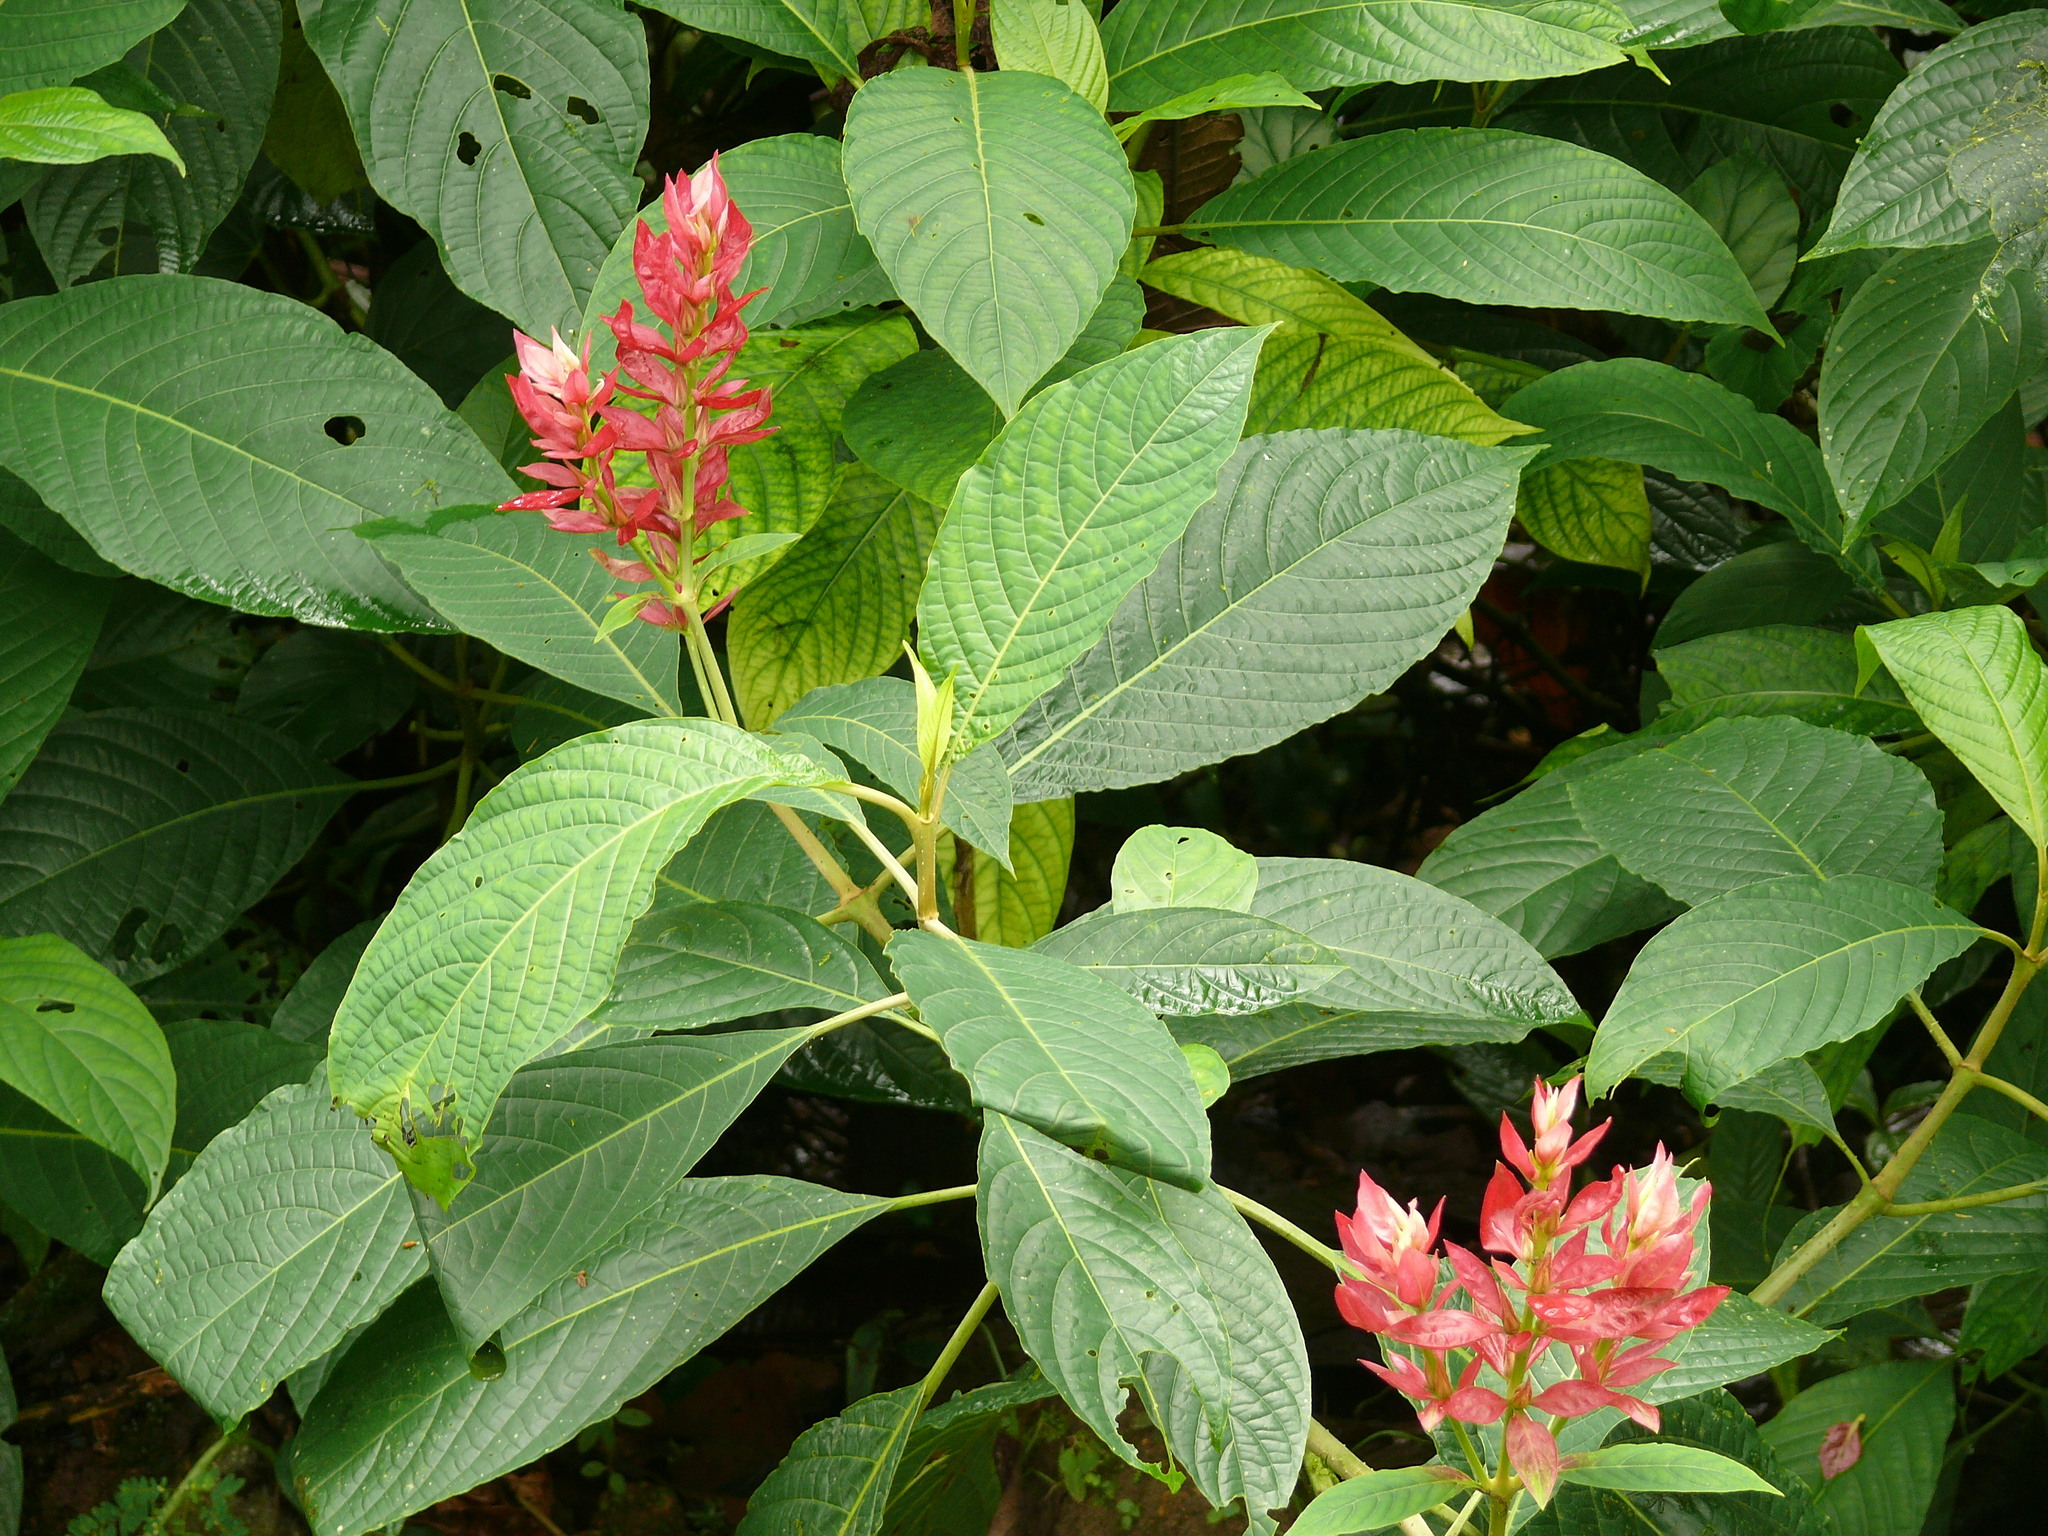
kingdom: Plantae
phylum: Tracheophyta
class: Magnoliopsida
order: Lamiales
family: Acanthaceae
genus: Megaskepasma
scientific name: Megaskepasma erythrochlamys
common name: Brazilian red-cloak
